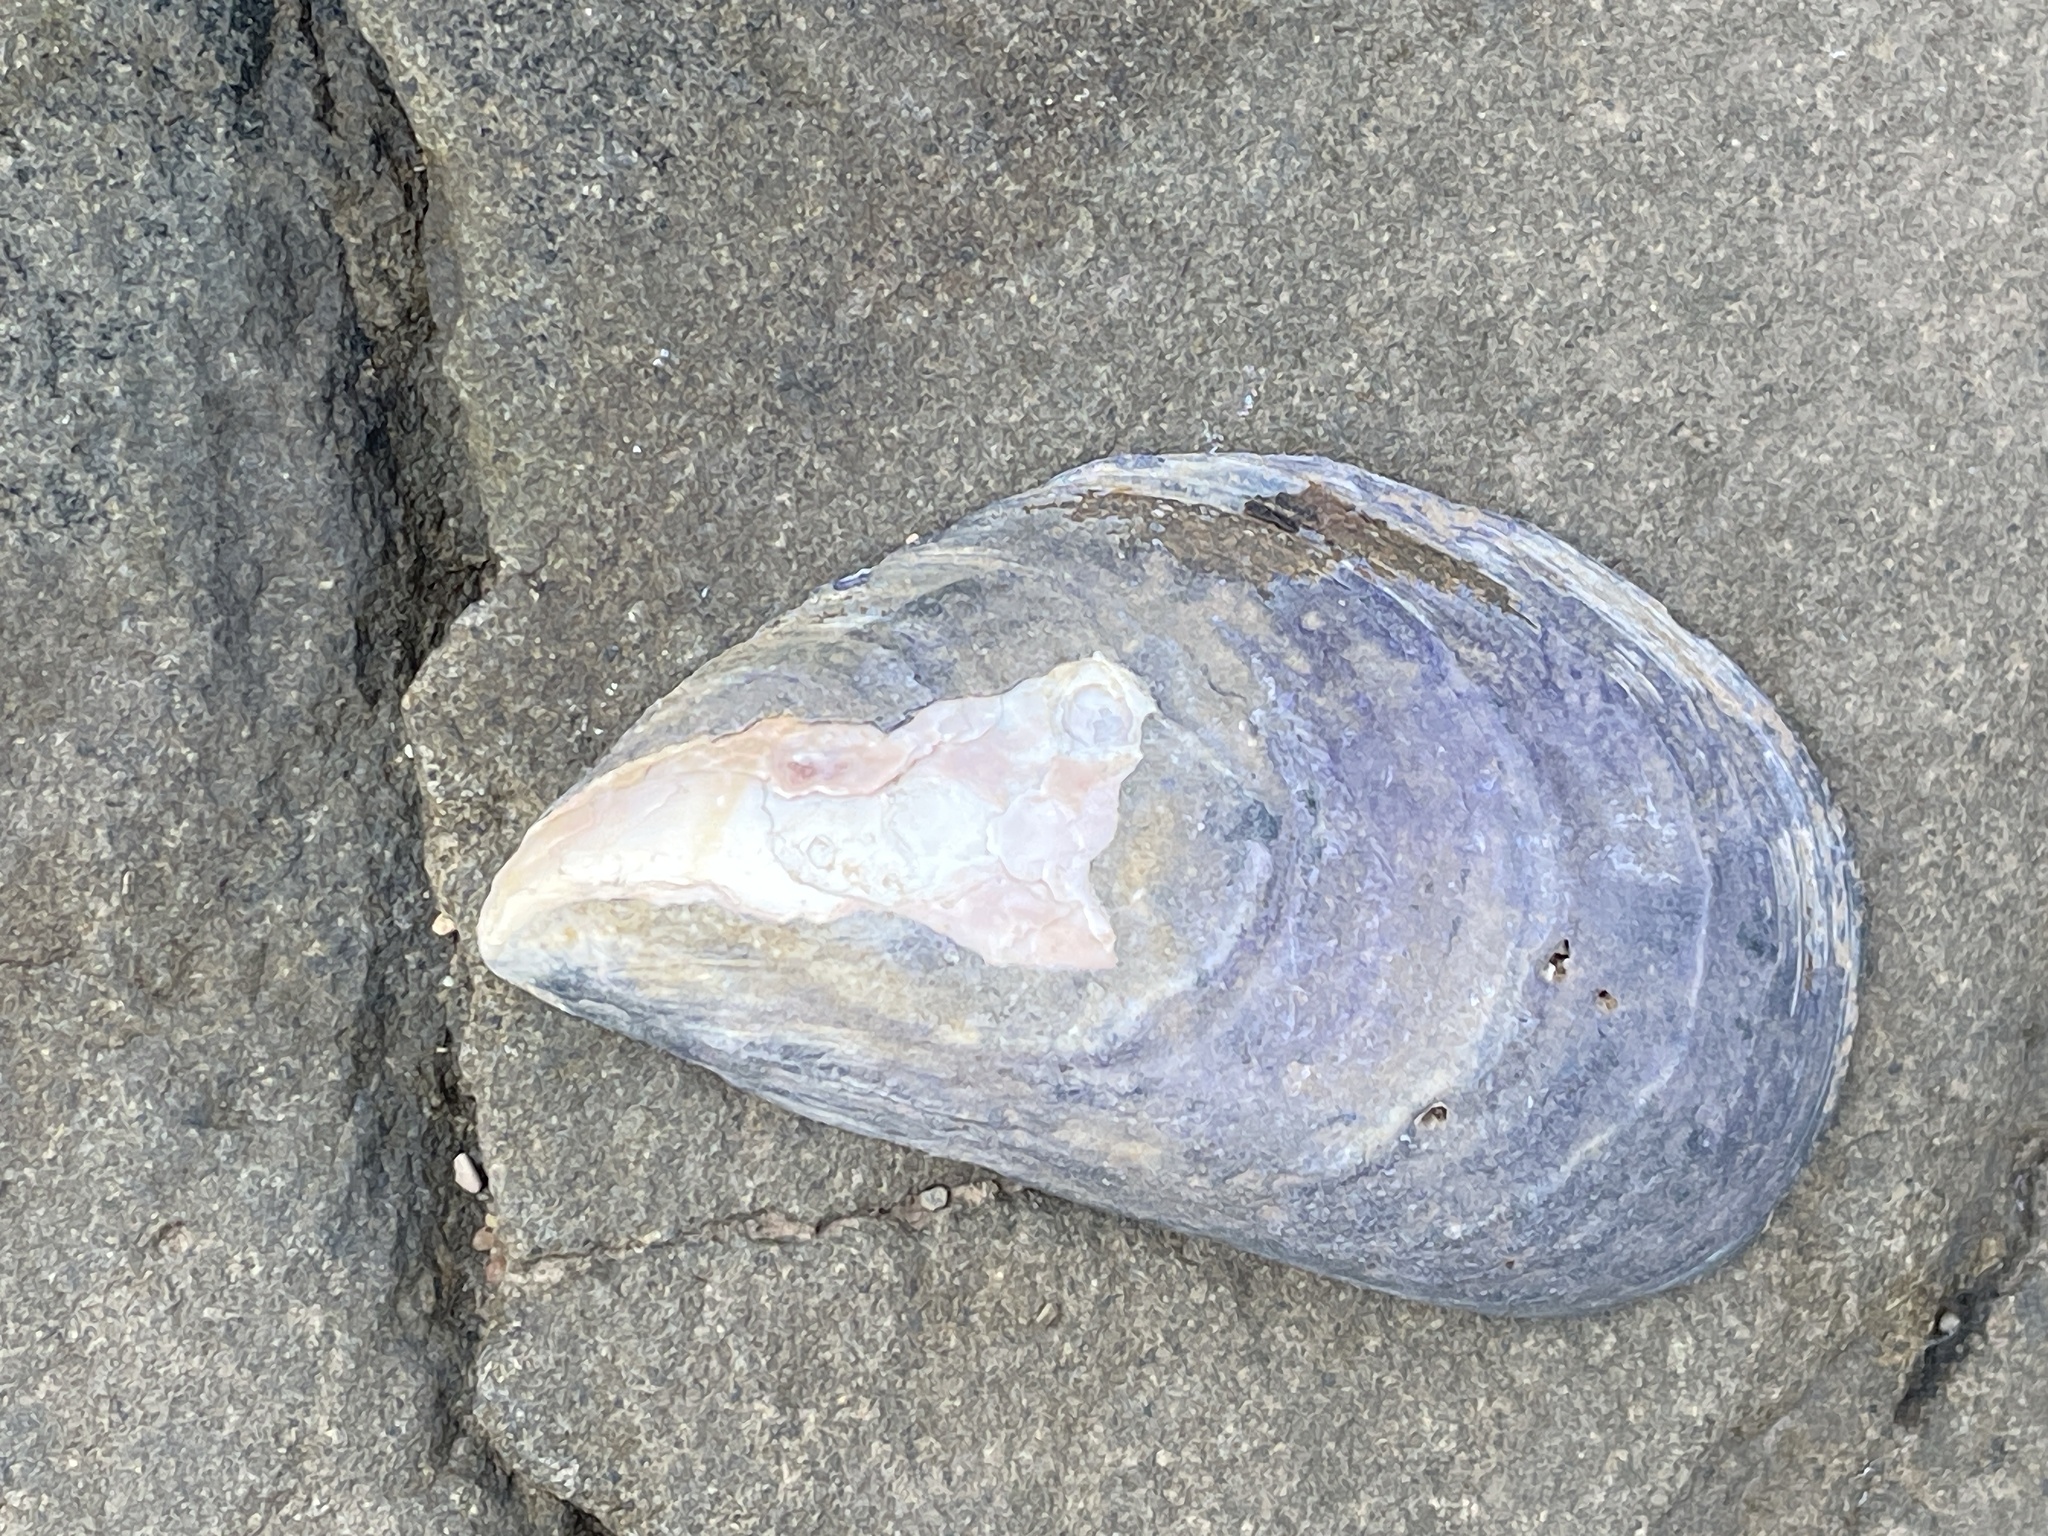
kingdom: Animalia
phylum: Mollusca
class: Bivalvia
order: Mytilida
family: Mytilidae
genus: Mytilus
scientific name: Mytilus
